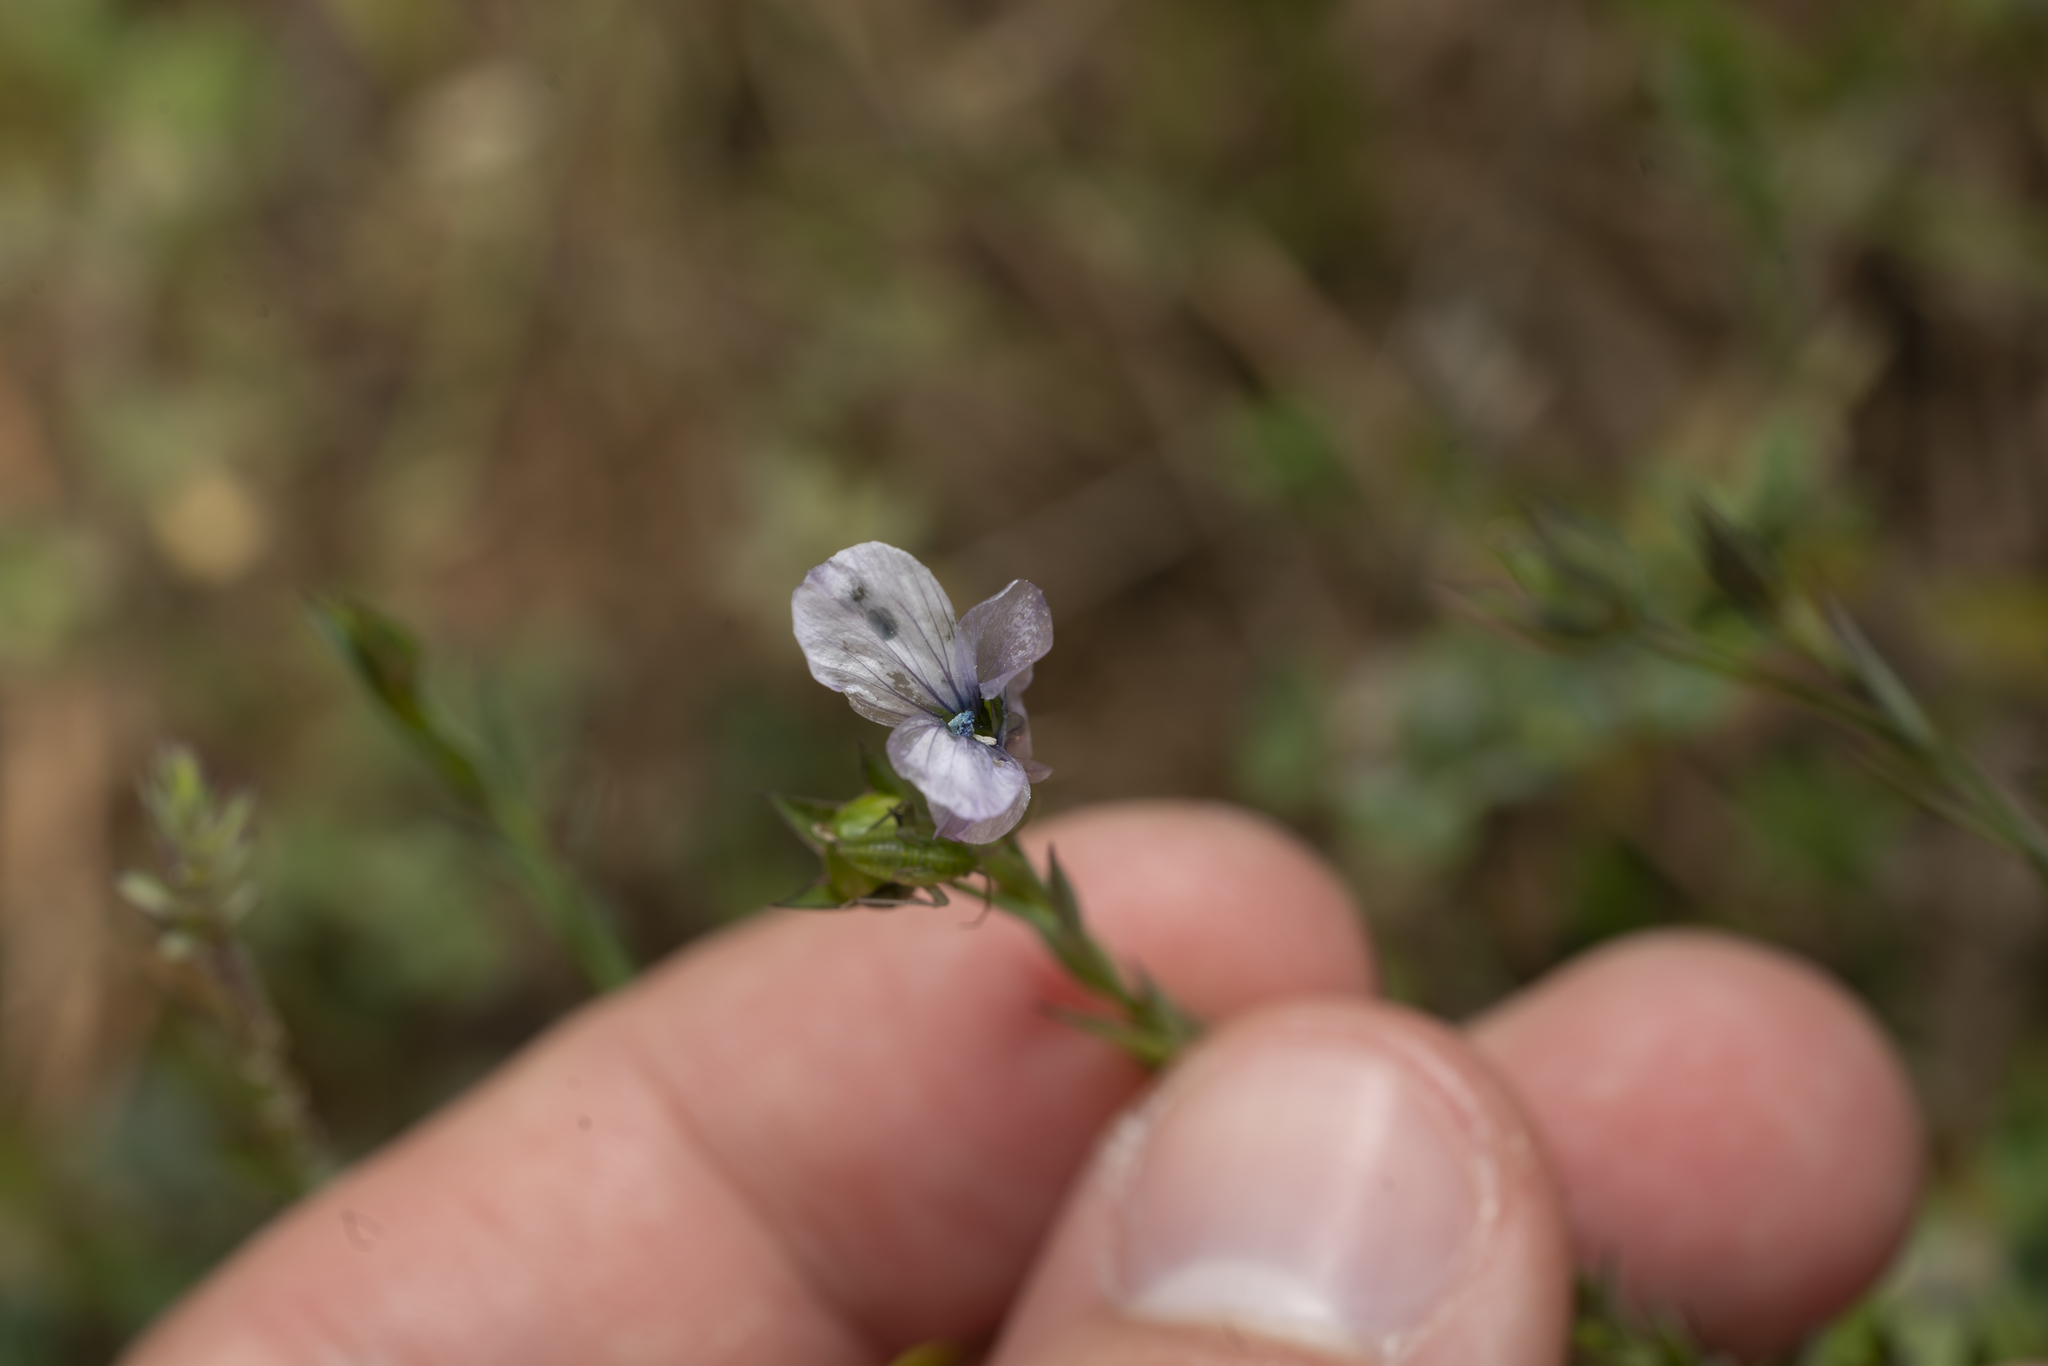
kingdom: Plantae
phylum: Tracheophyta
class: Magnoliopsida
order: Malpighiales
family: Linaceae
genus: Linum
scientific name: Linum bienne
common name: Pale flax
